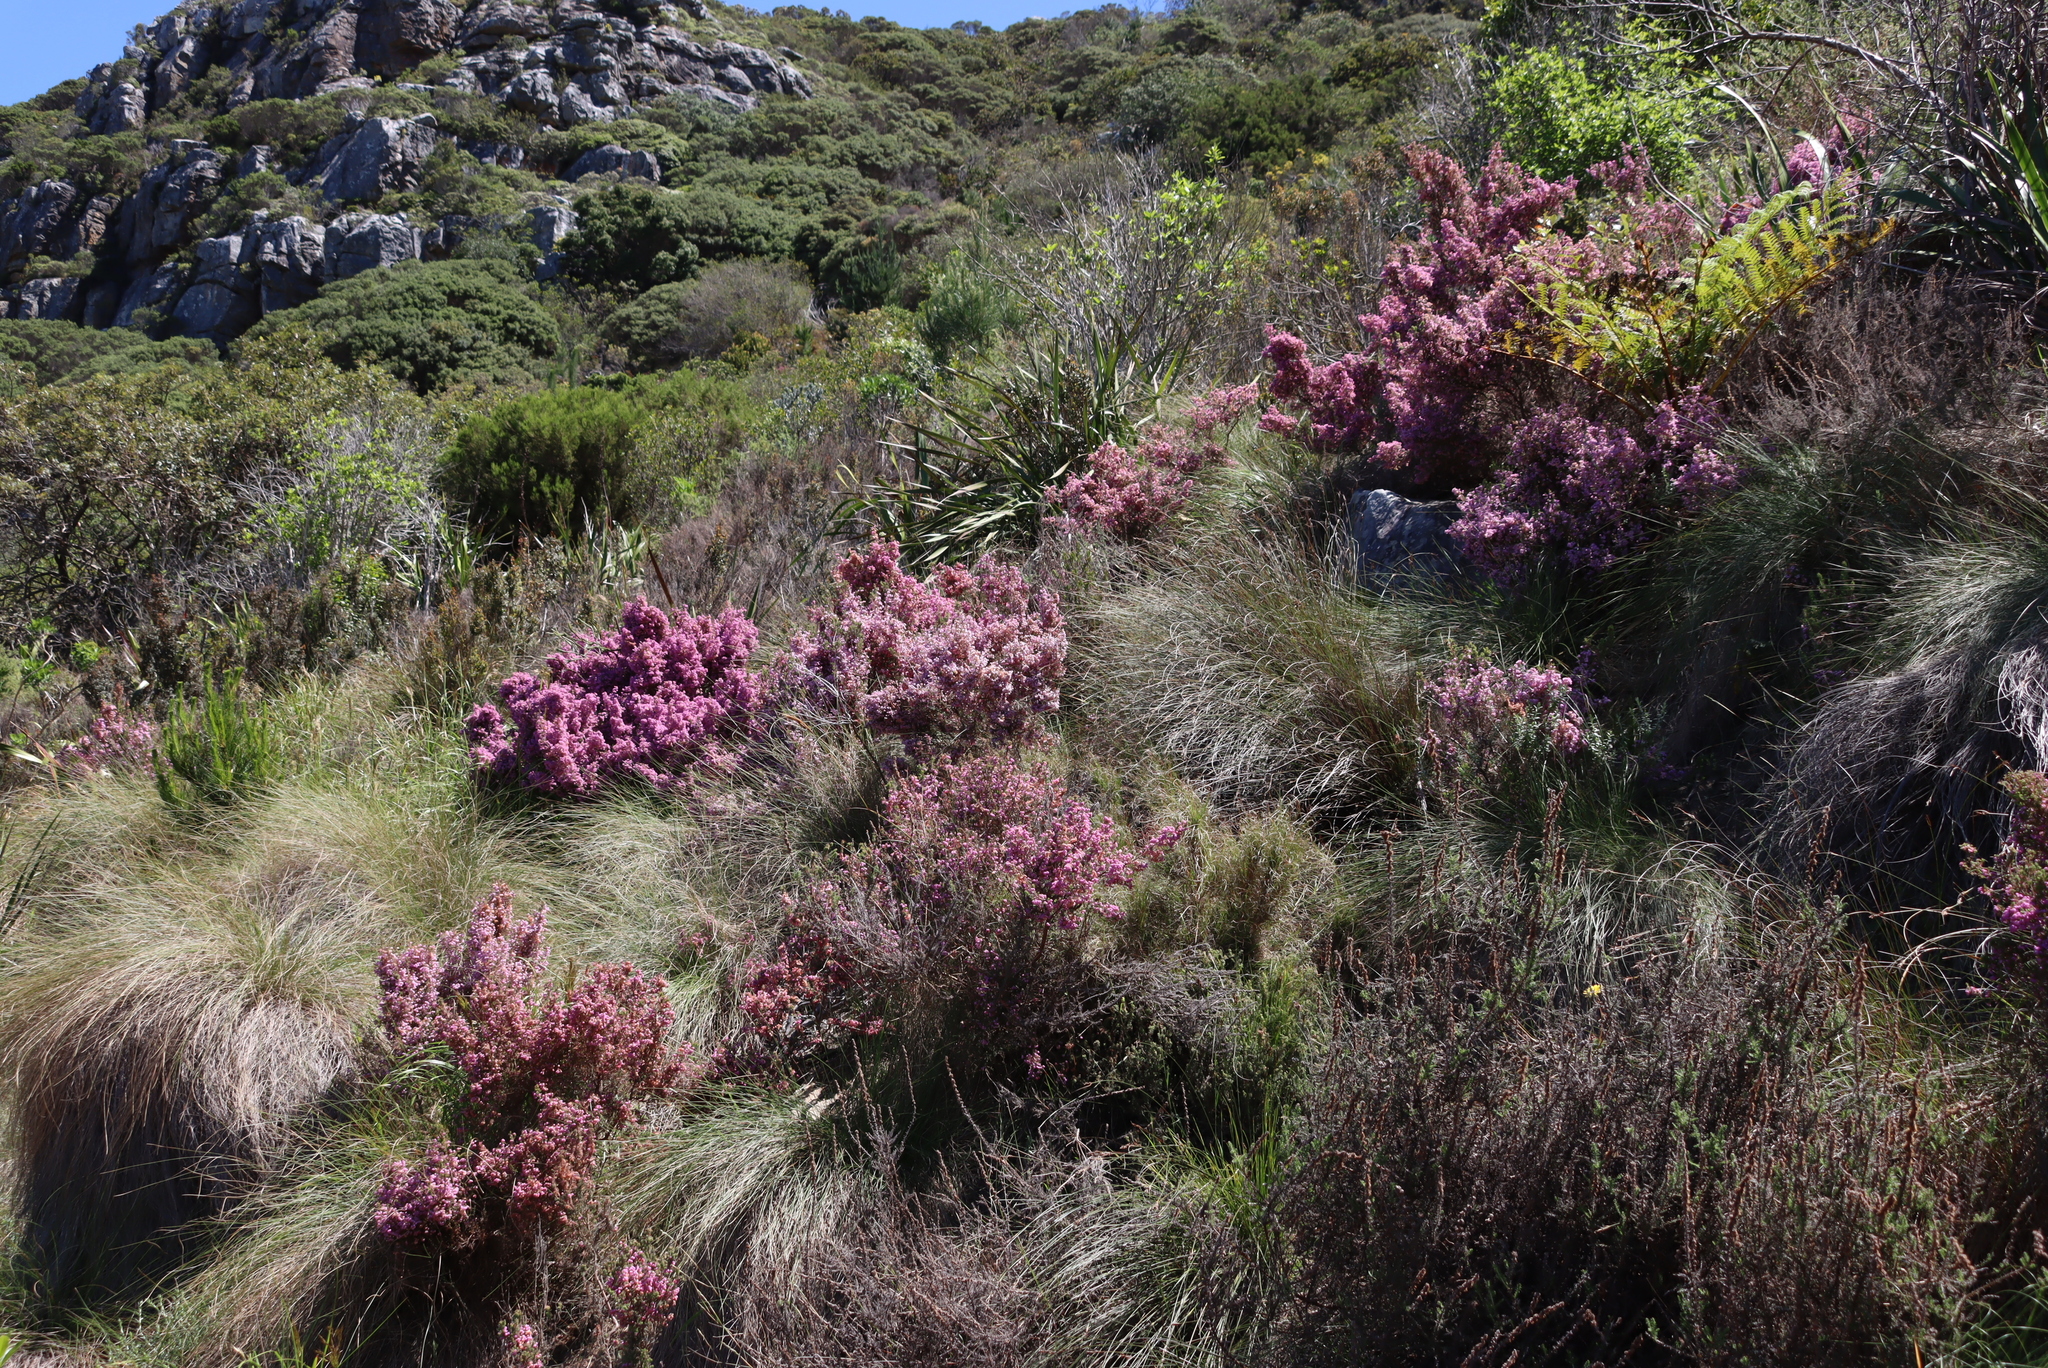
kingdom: Plantae
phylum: Tracheophyta
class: Magnoliopsida
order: Ericales
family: Ericaceae
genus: Erica
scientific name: Erica hirtiflora
